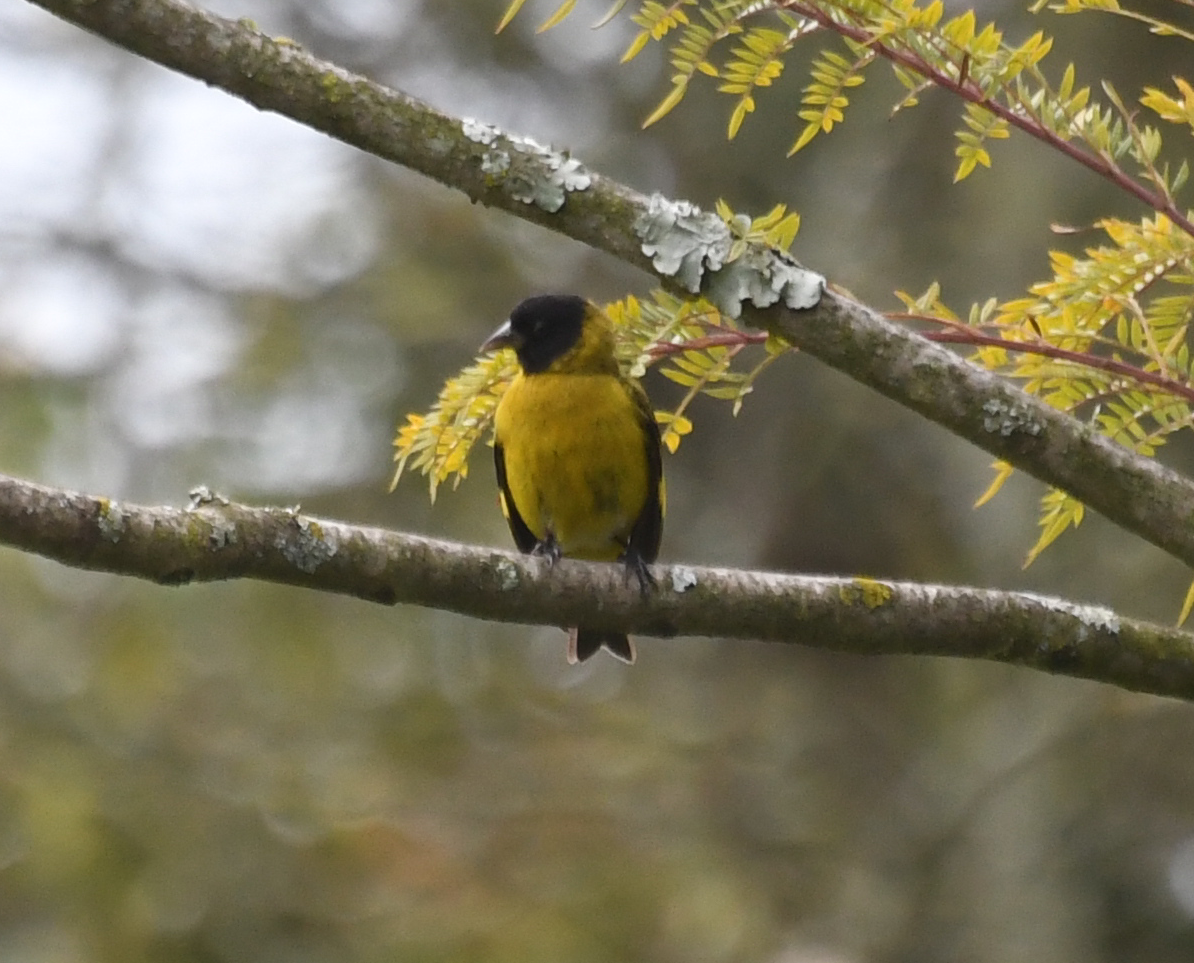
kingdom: Animalia
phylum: Chordata
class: Aves
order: Passeriformes
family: Fringillidae
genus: Spinus
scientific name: Spinus magellanicus
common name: Hooded siskin
